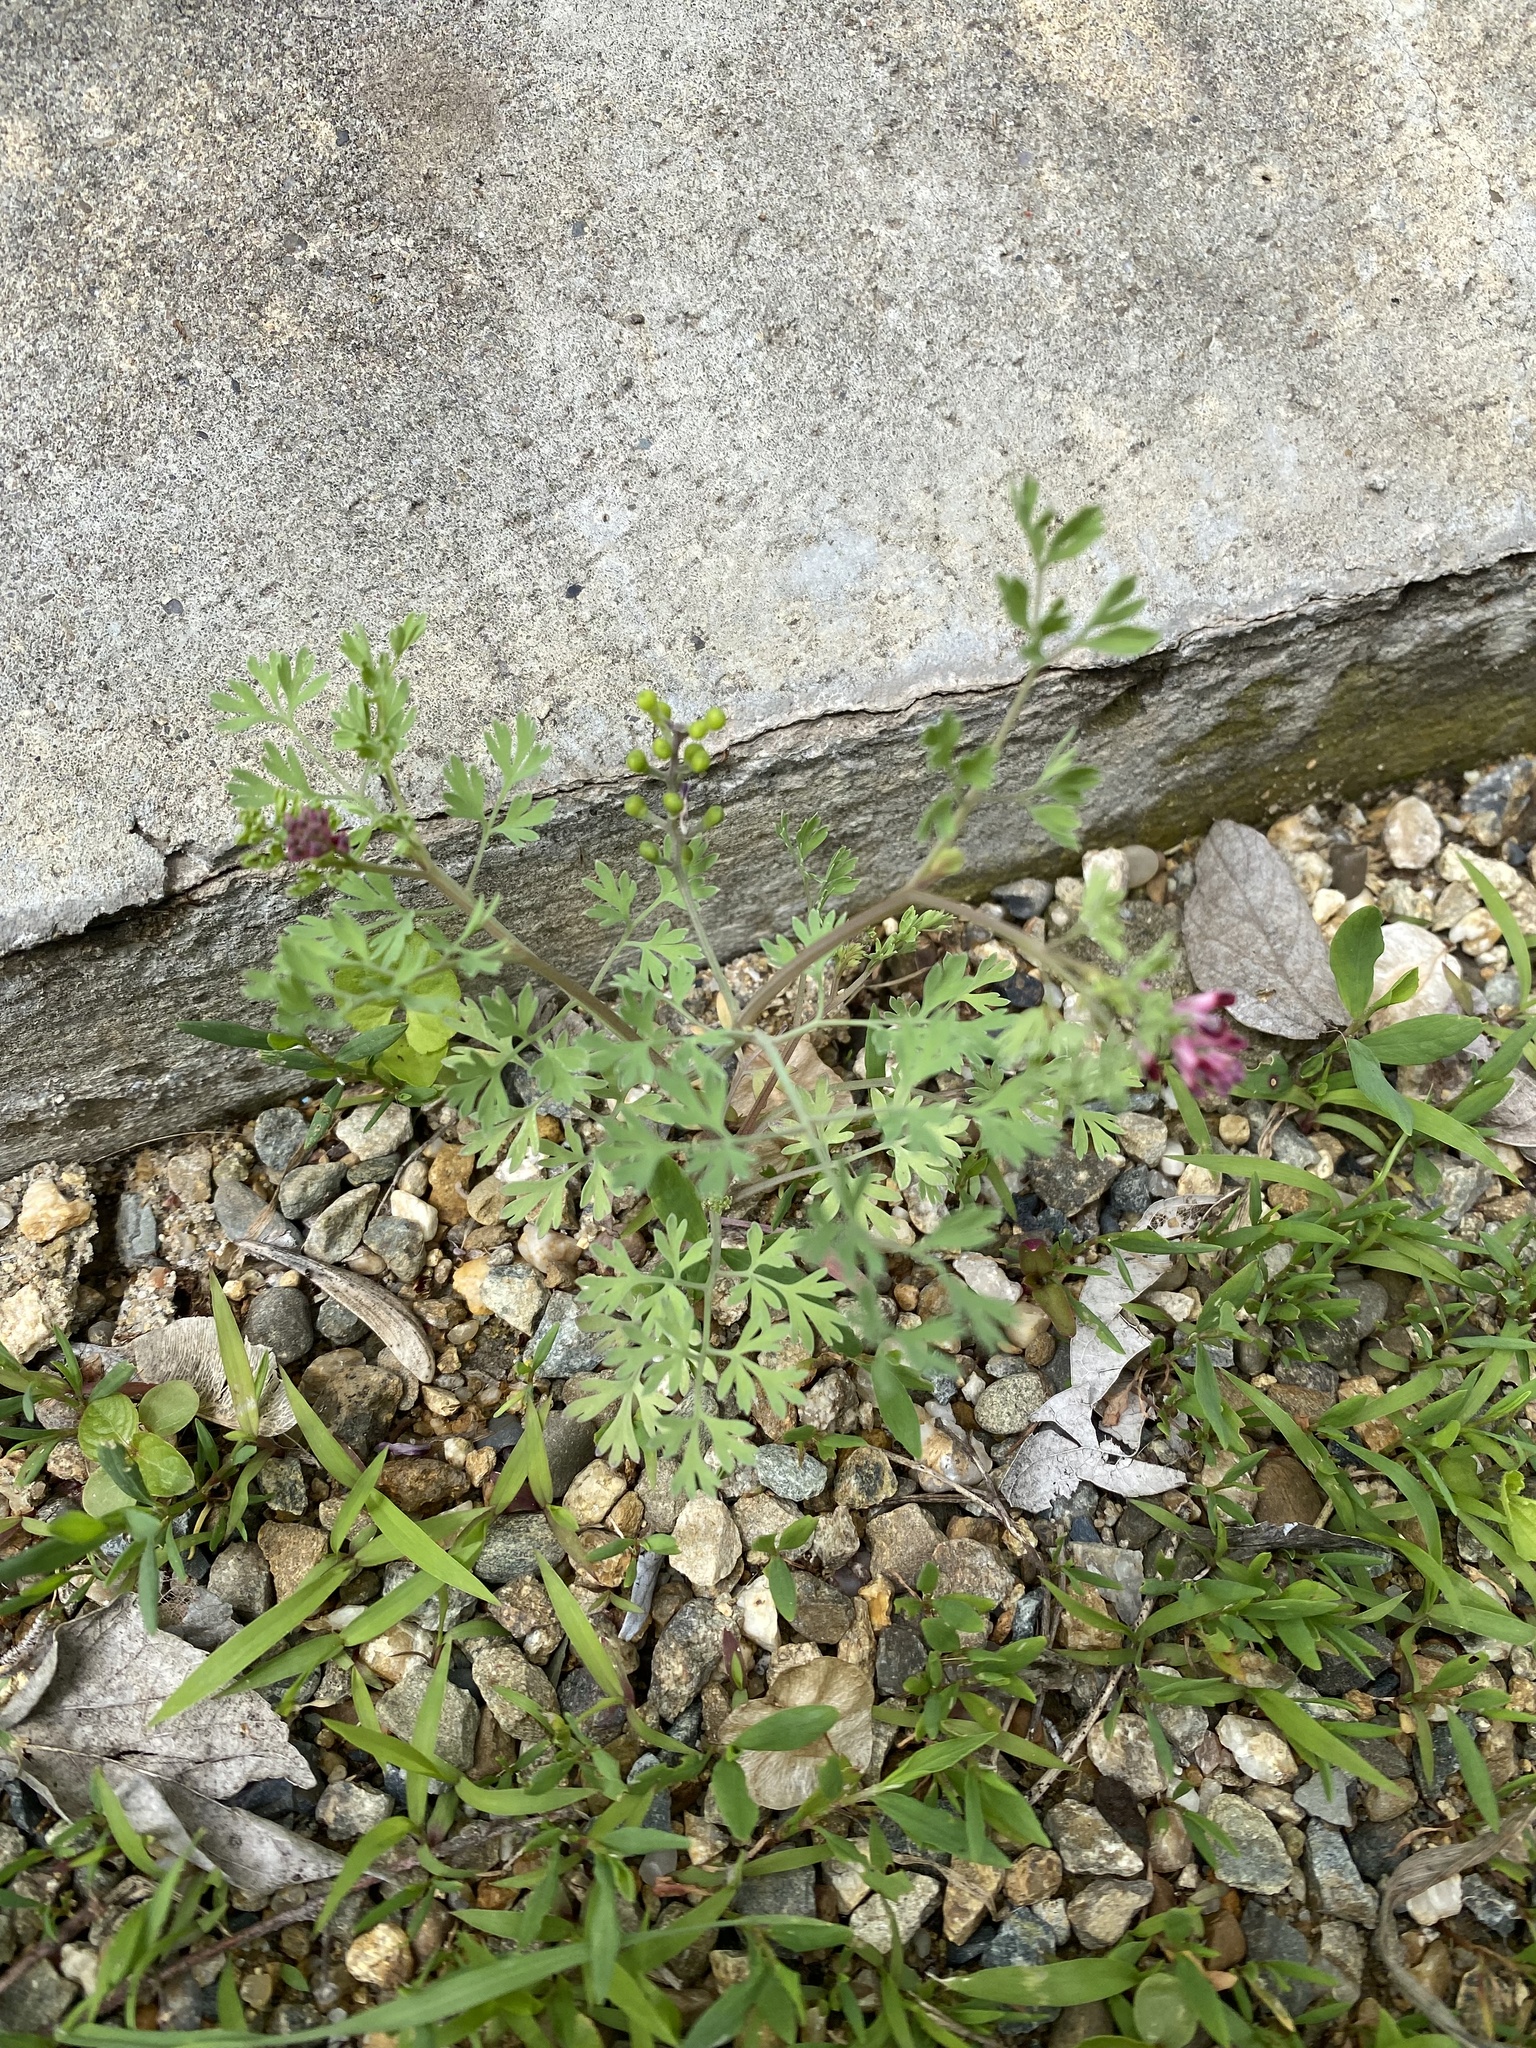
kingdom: Plantae
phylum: Tracheophyta
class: Magnoliopsida
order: Ranunculales
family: Papaveraceae
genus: Fumaria
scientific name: Fumaria schleicheri
